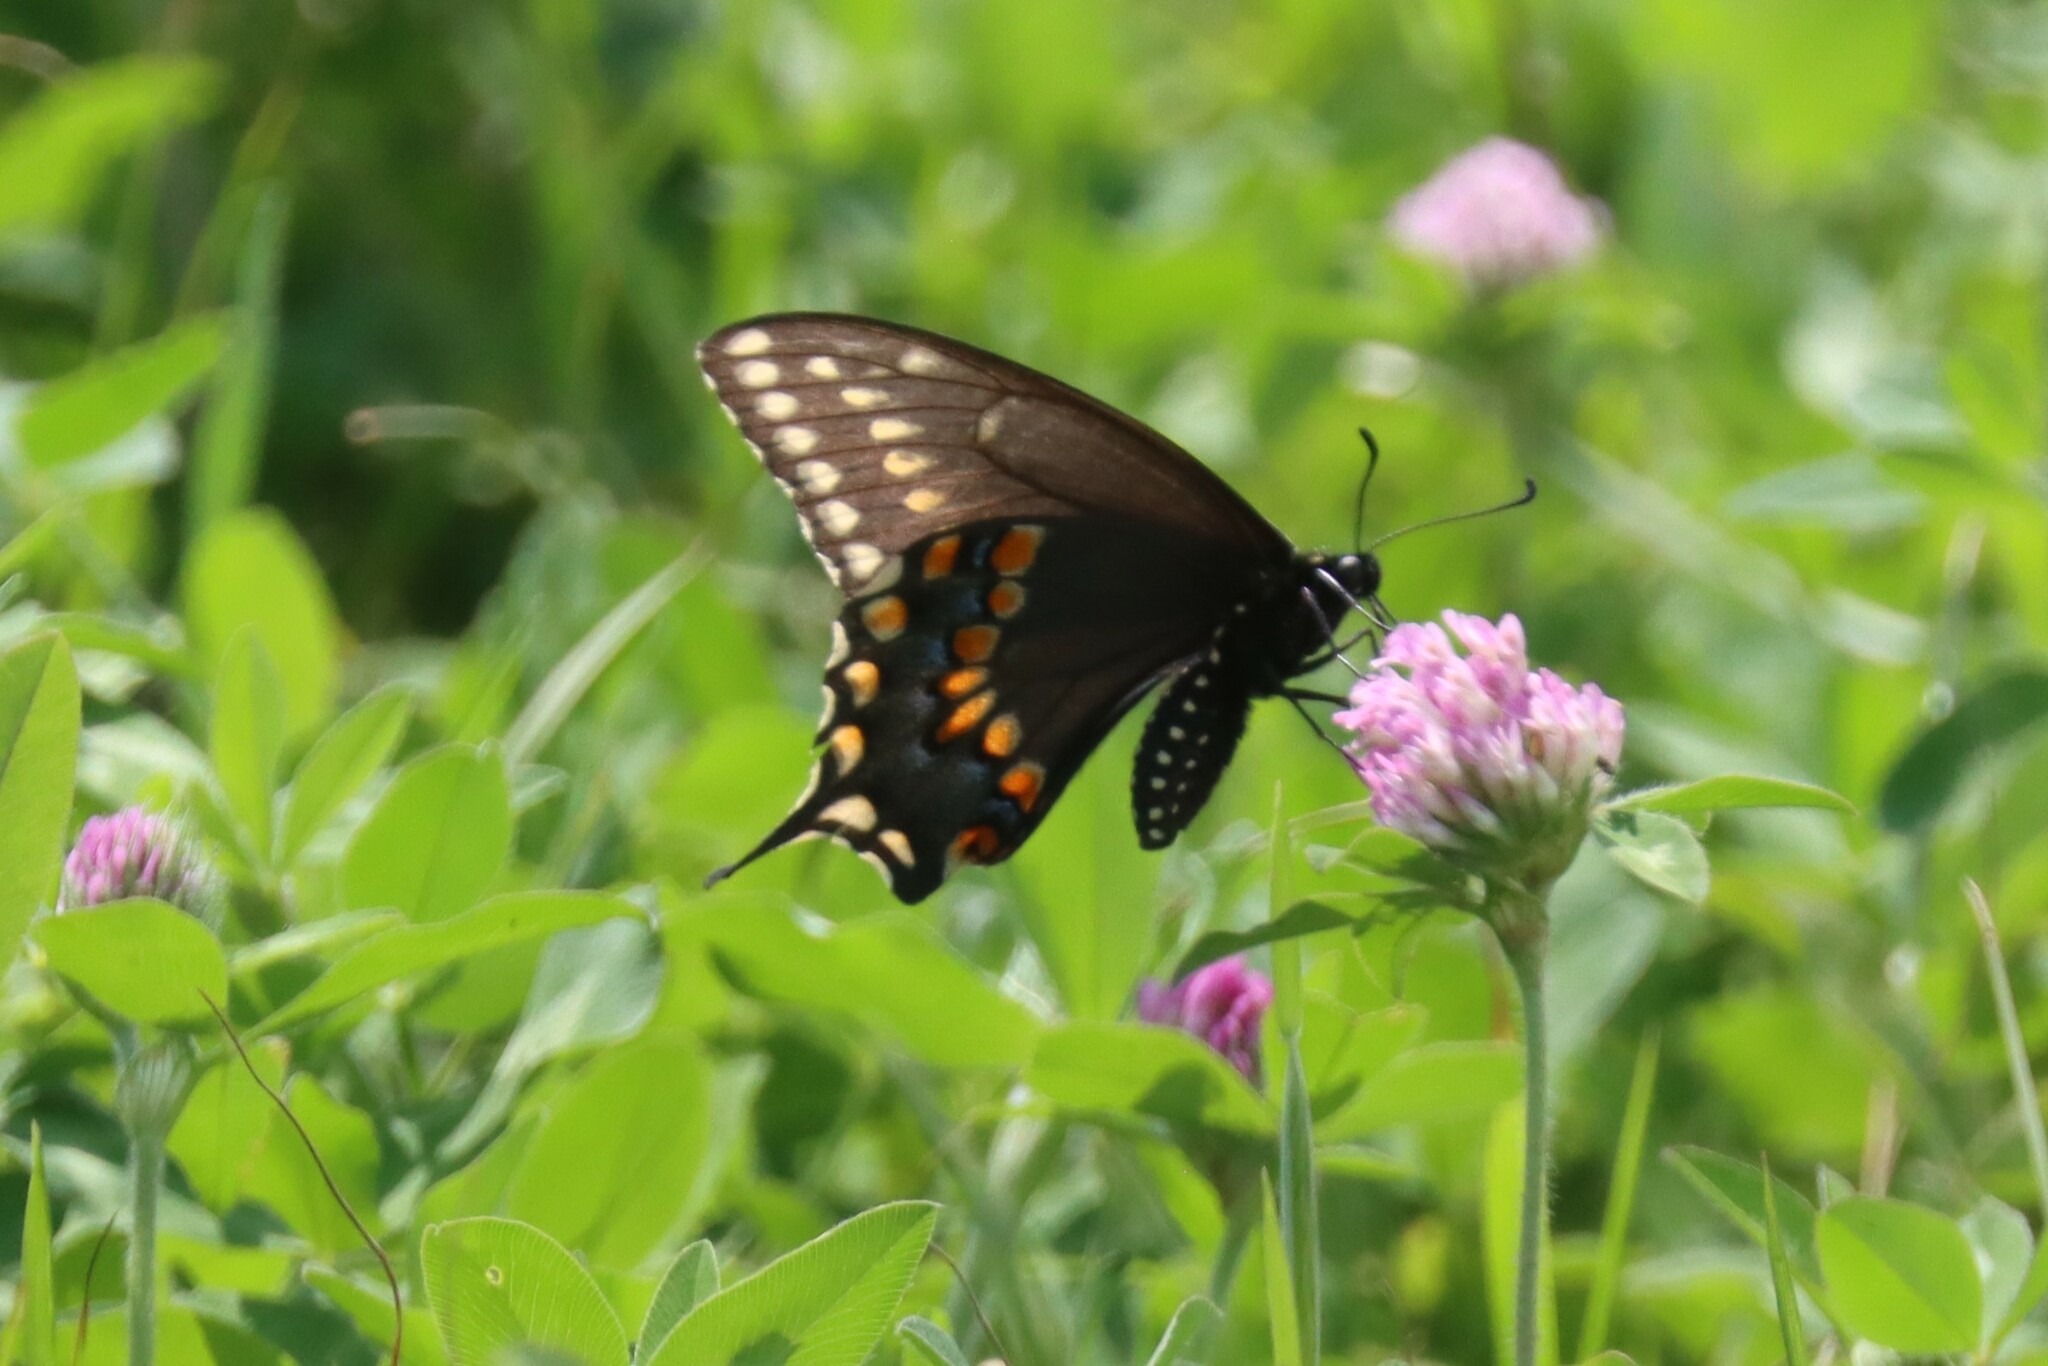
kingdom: Animalia
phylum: Arthropoda
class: Insecta
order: Lepidoptera
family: Papilionidae
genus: Papilio
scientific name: Papilio polyxenes
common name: Black swallowtail
